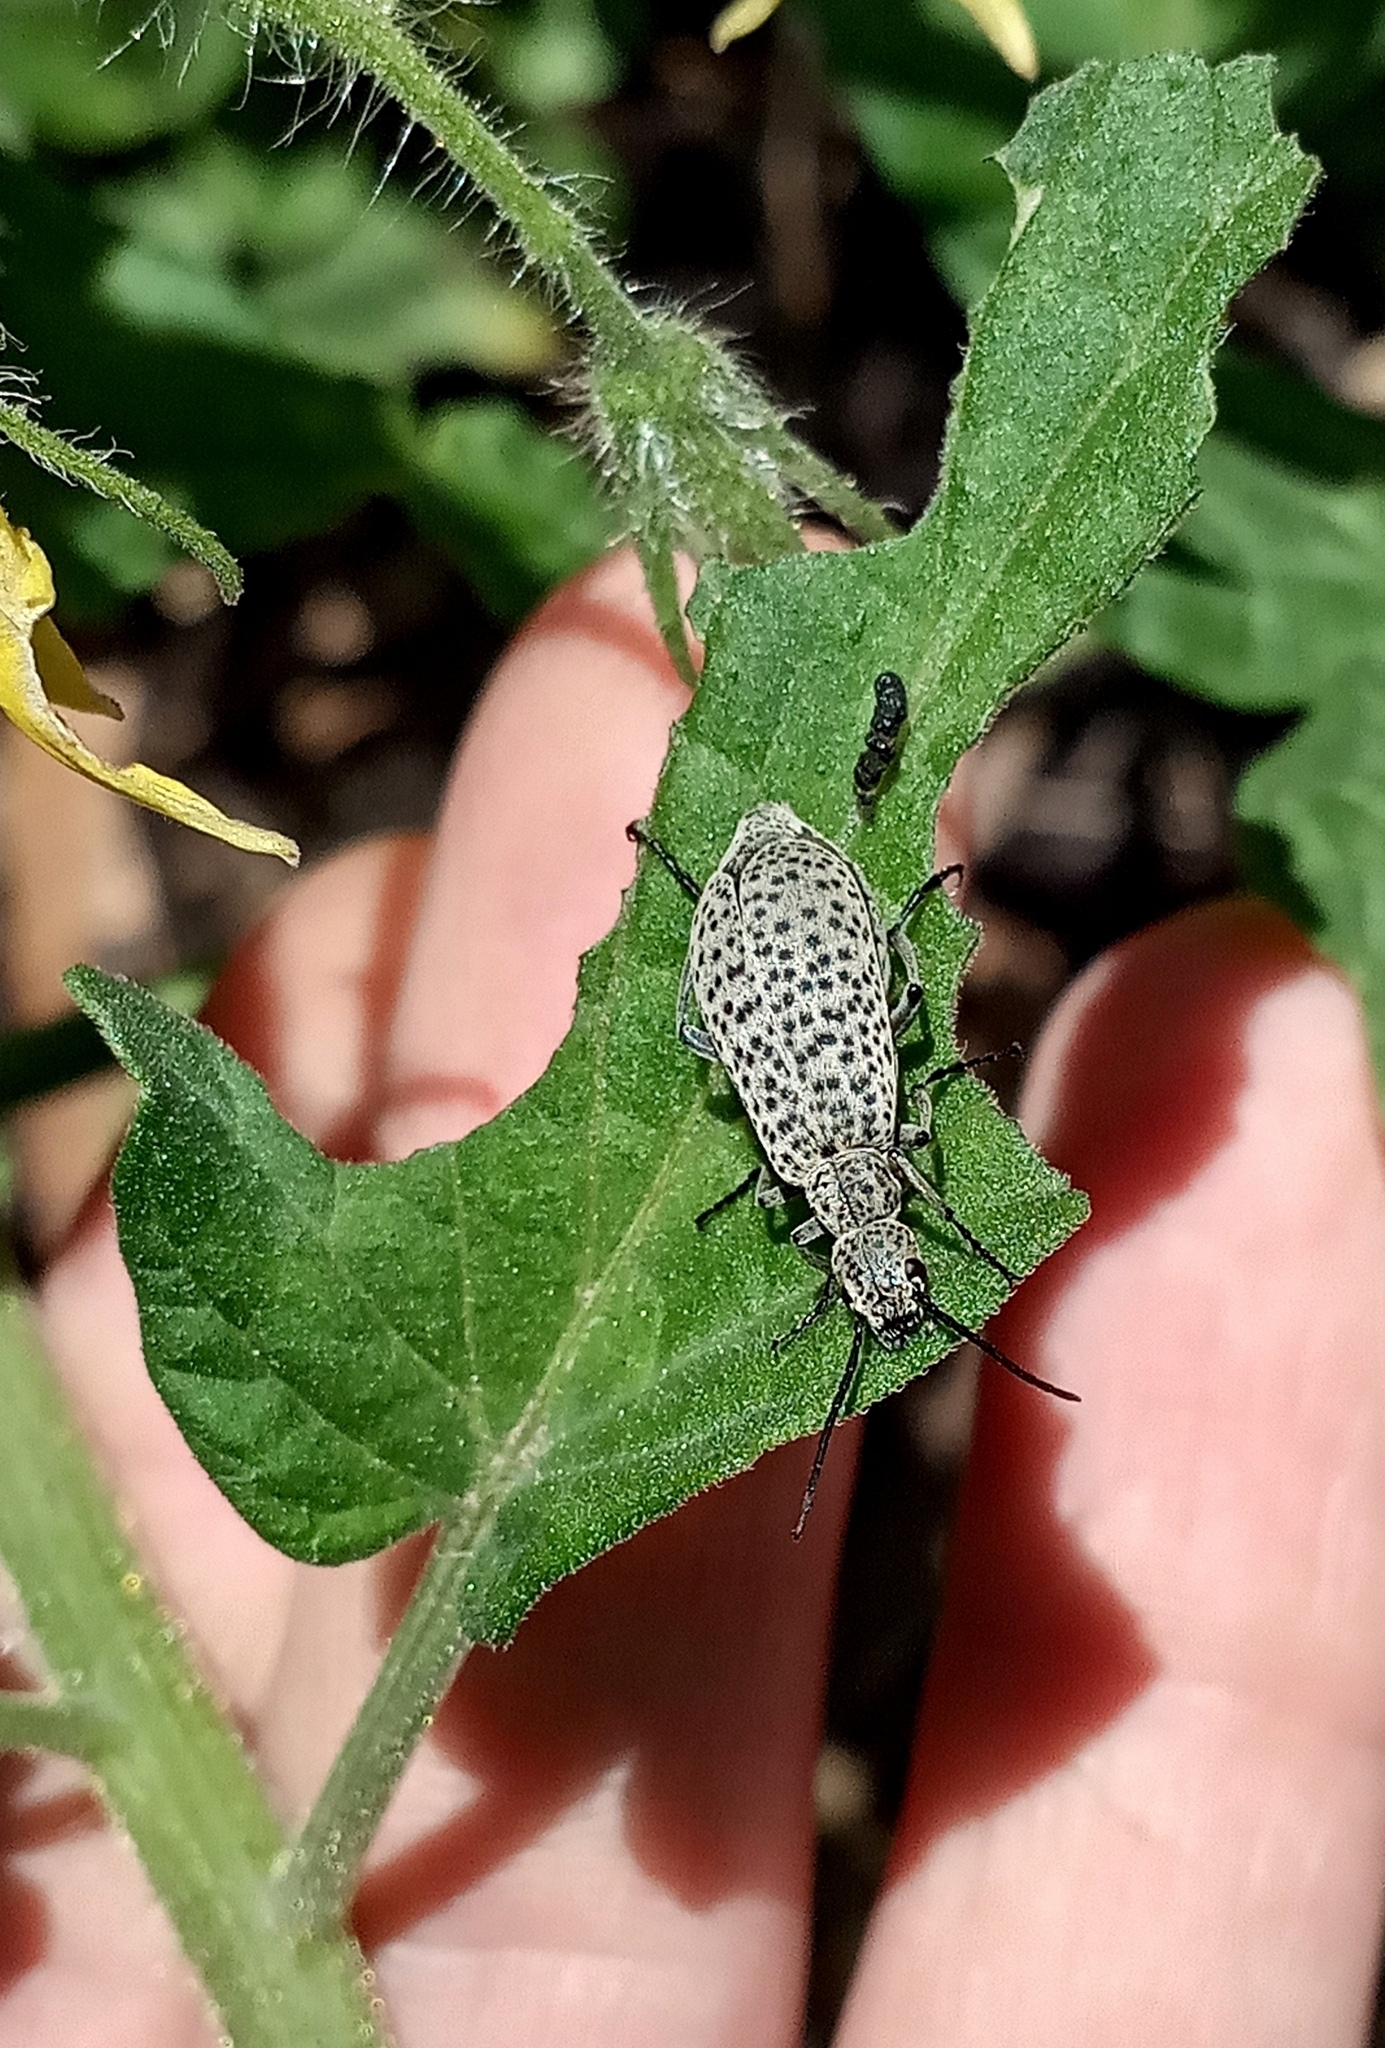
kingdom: Animalia
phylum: Arthropoda
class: Insecta
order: Coleoptera
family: Meloidae
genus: Epicauta
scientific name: Epicauta
